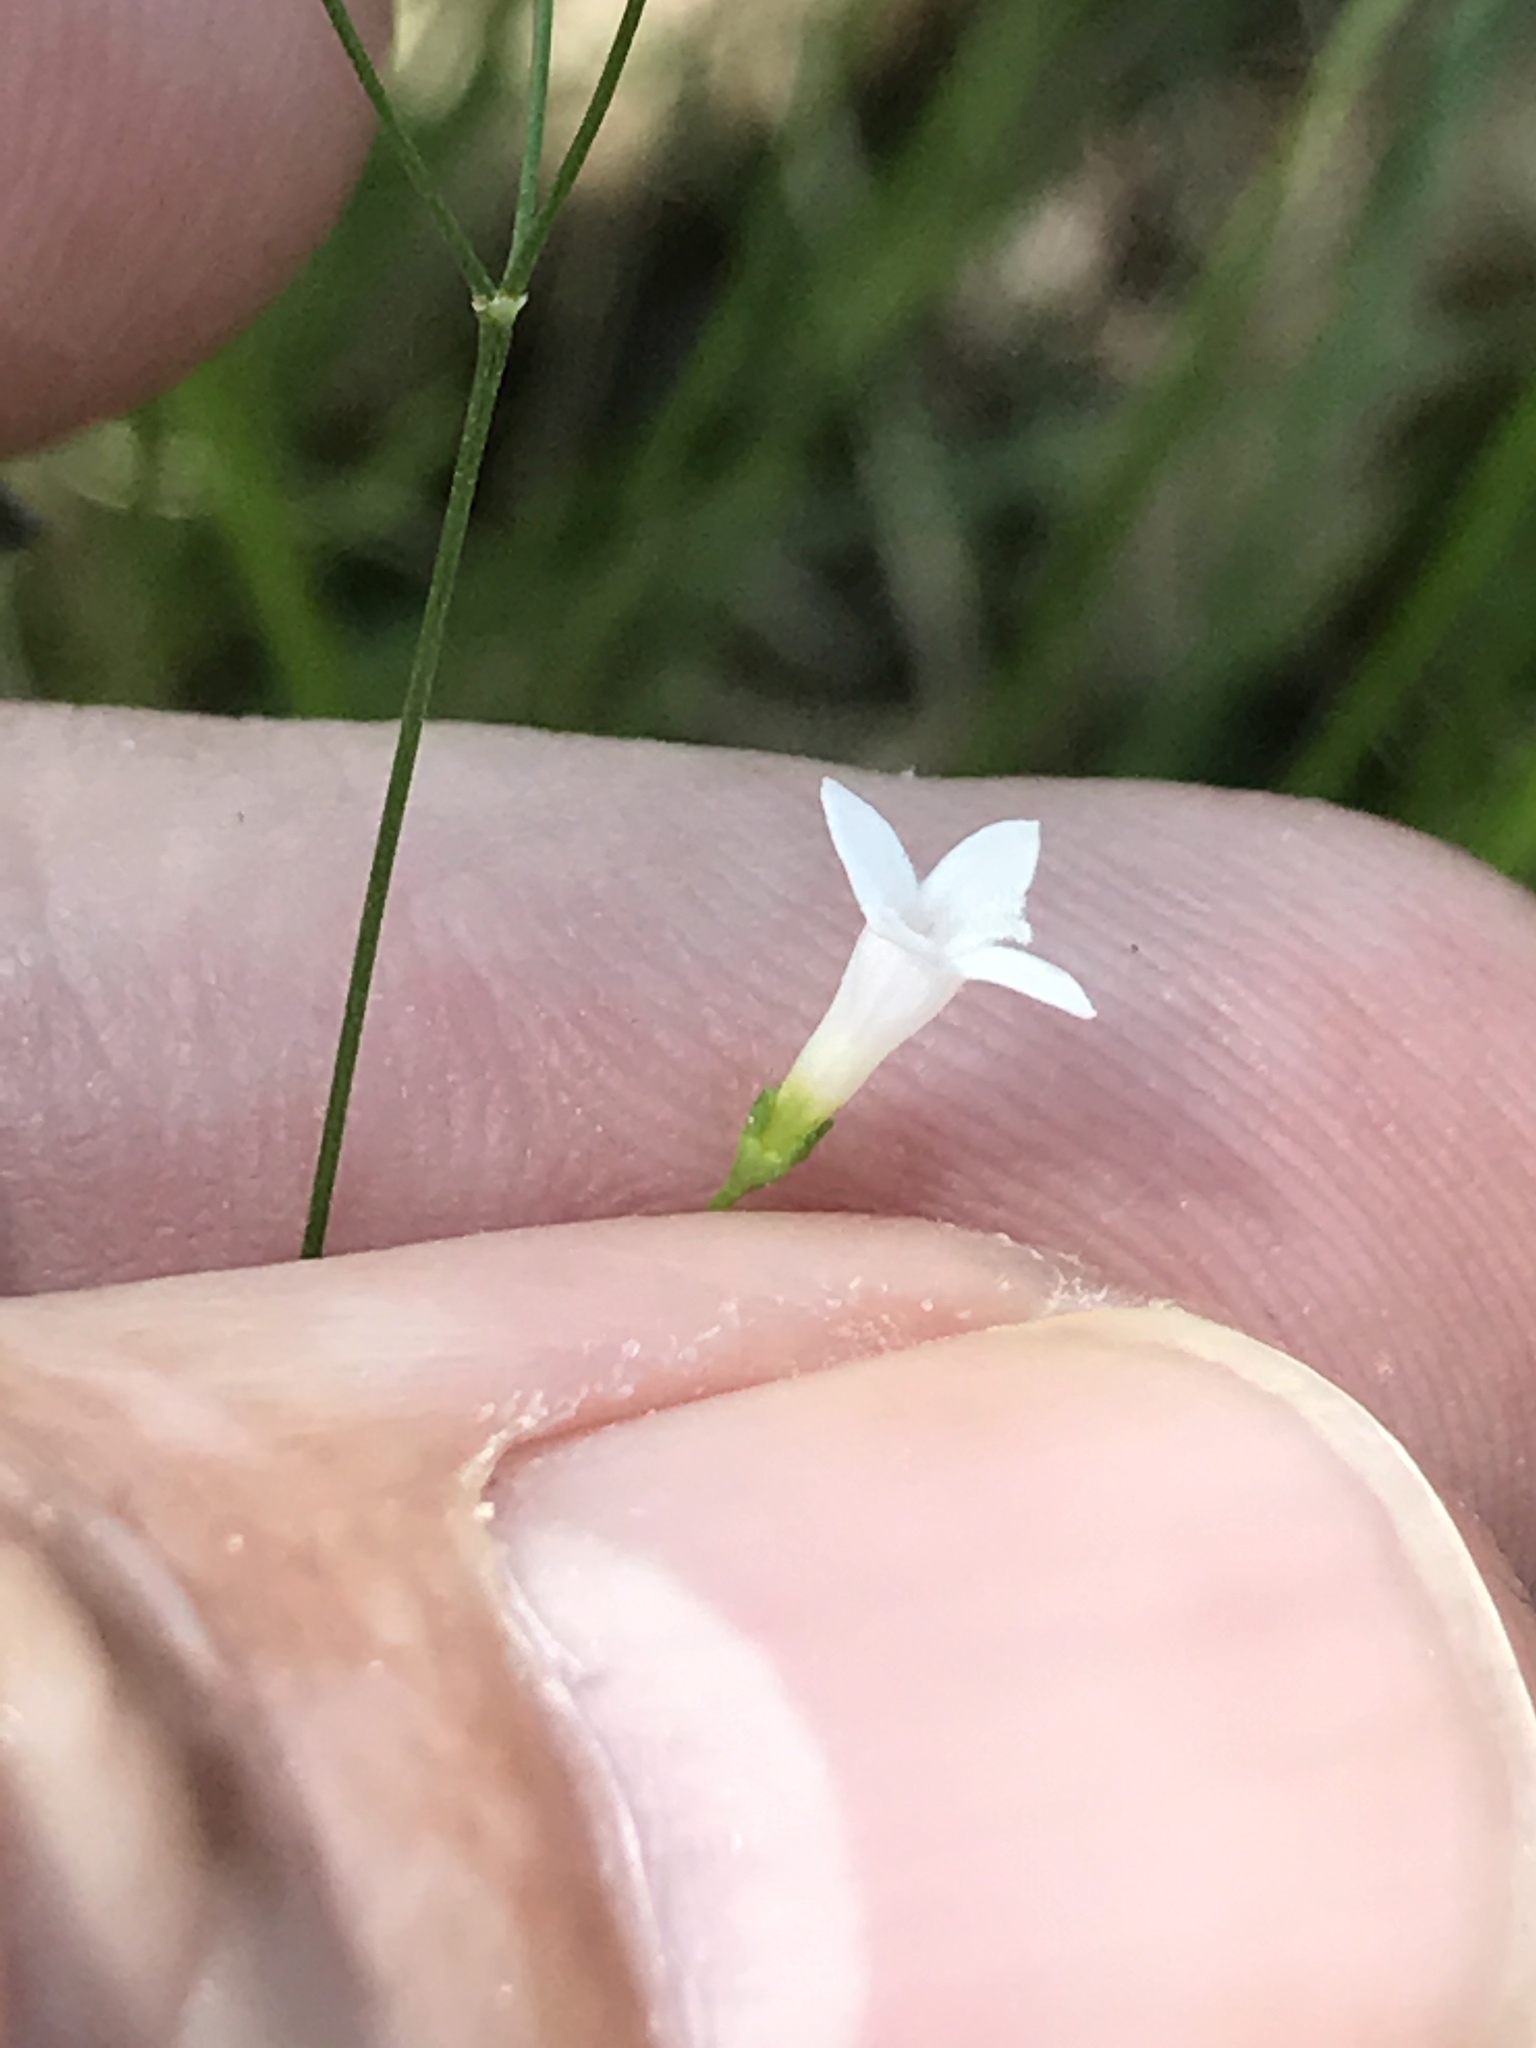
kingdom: Plantae
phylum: Tracheophyta
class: Magnoliopsida
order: Gentianales
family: Rubiaceae
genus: Houstonia
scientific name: Houstonia longifolia
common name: Long-leaved bluets
